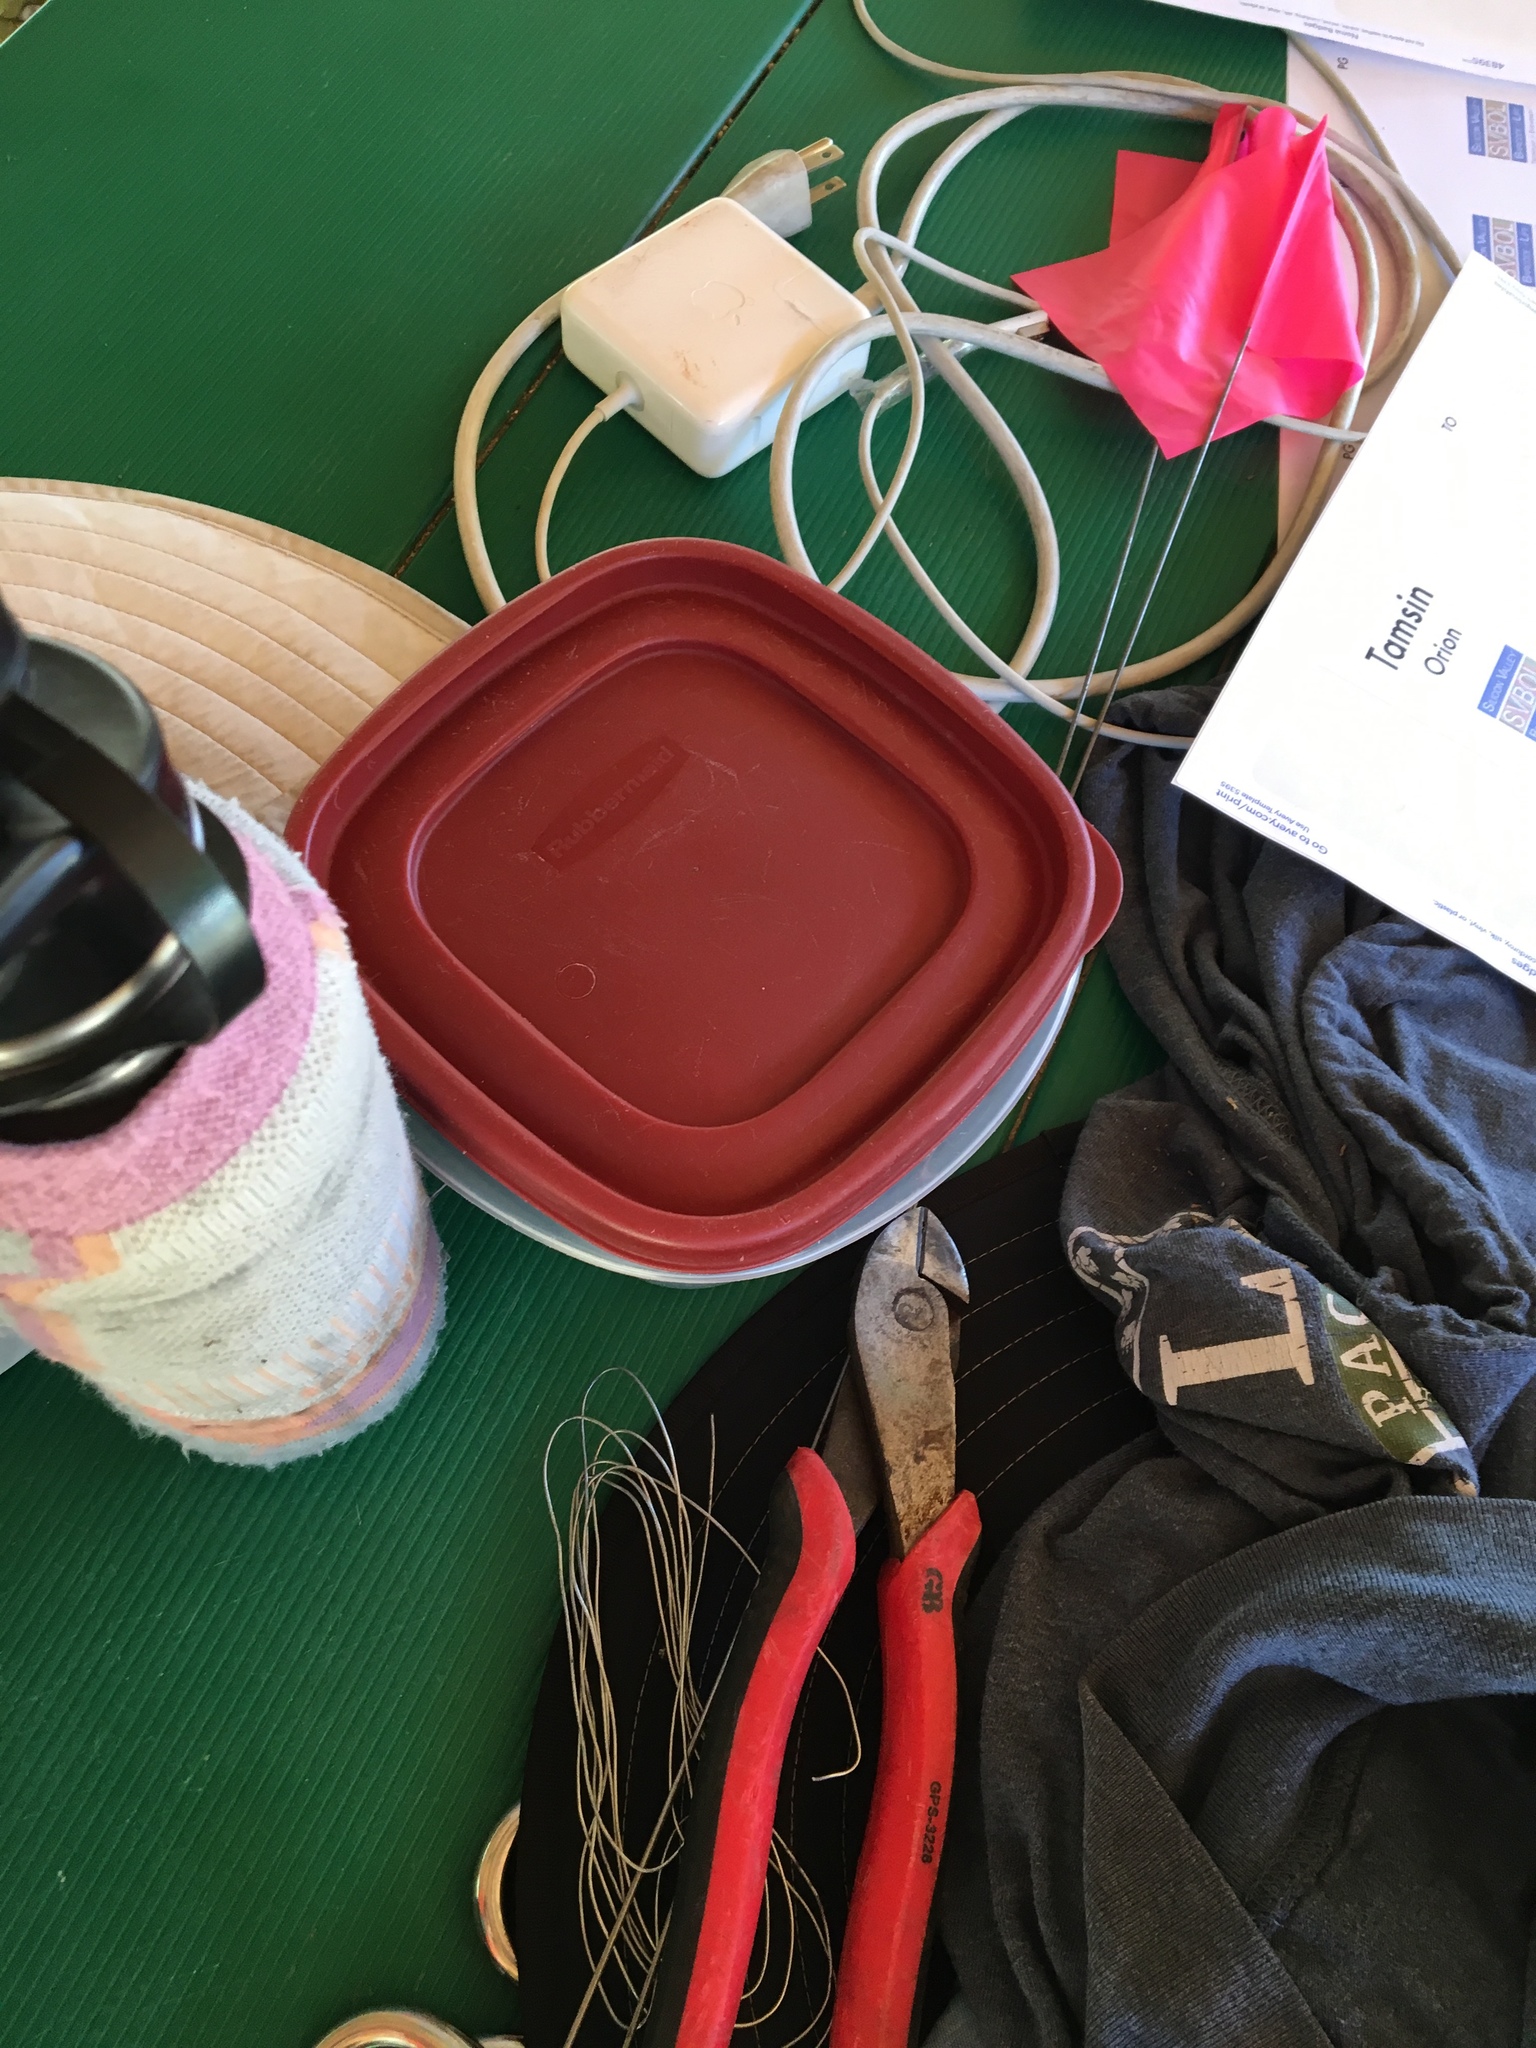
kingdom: Animalia
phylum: Arthropoda
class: Insecta
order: Hymenoptera
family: Apidae
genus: Apis
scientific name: Apis mellifera
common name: Honey bee
